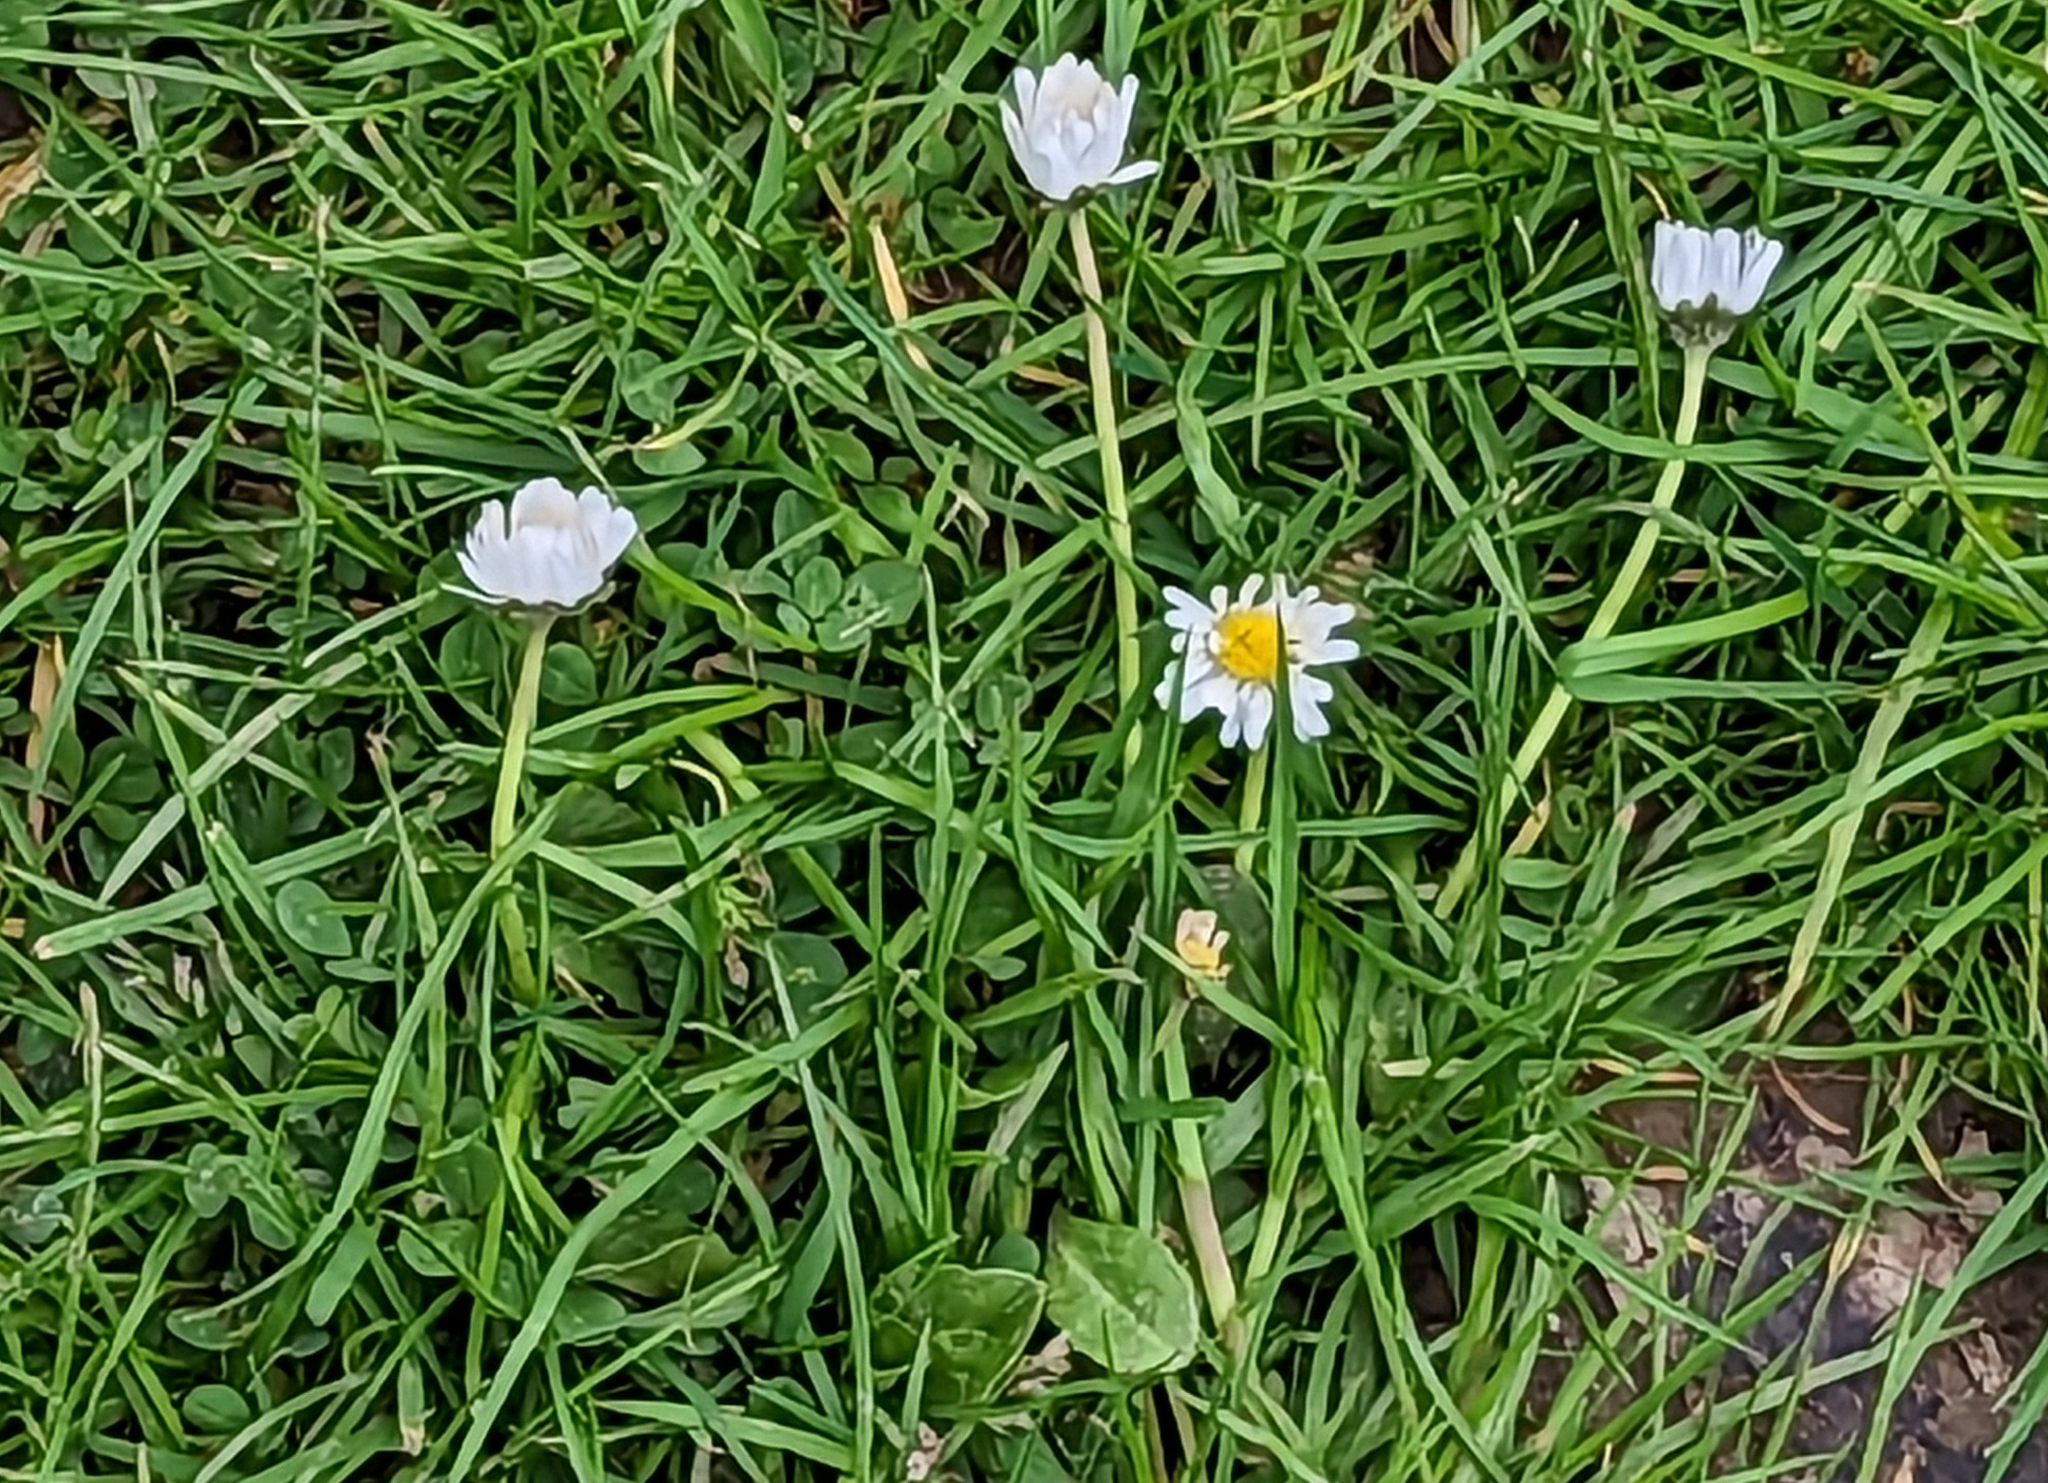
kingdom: Plantae
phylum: Tracheophyta
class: Magnoliopsida
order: Asterales
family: Asteraceae
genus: Bellis
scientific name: Bellis perennis
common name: Lawndaisy
